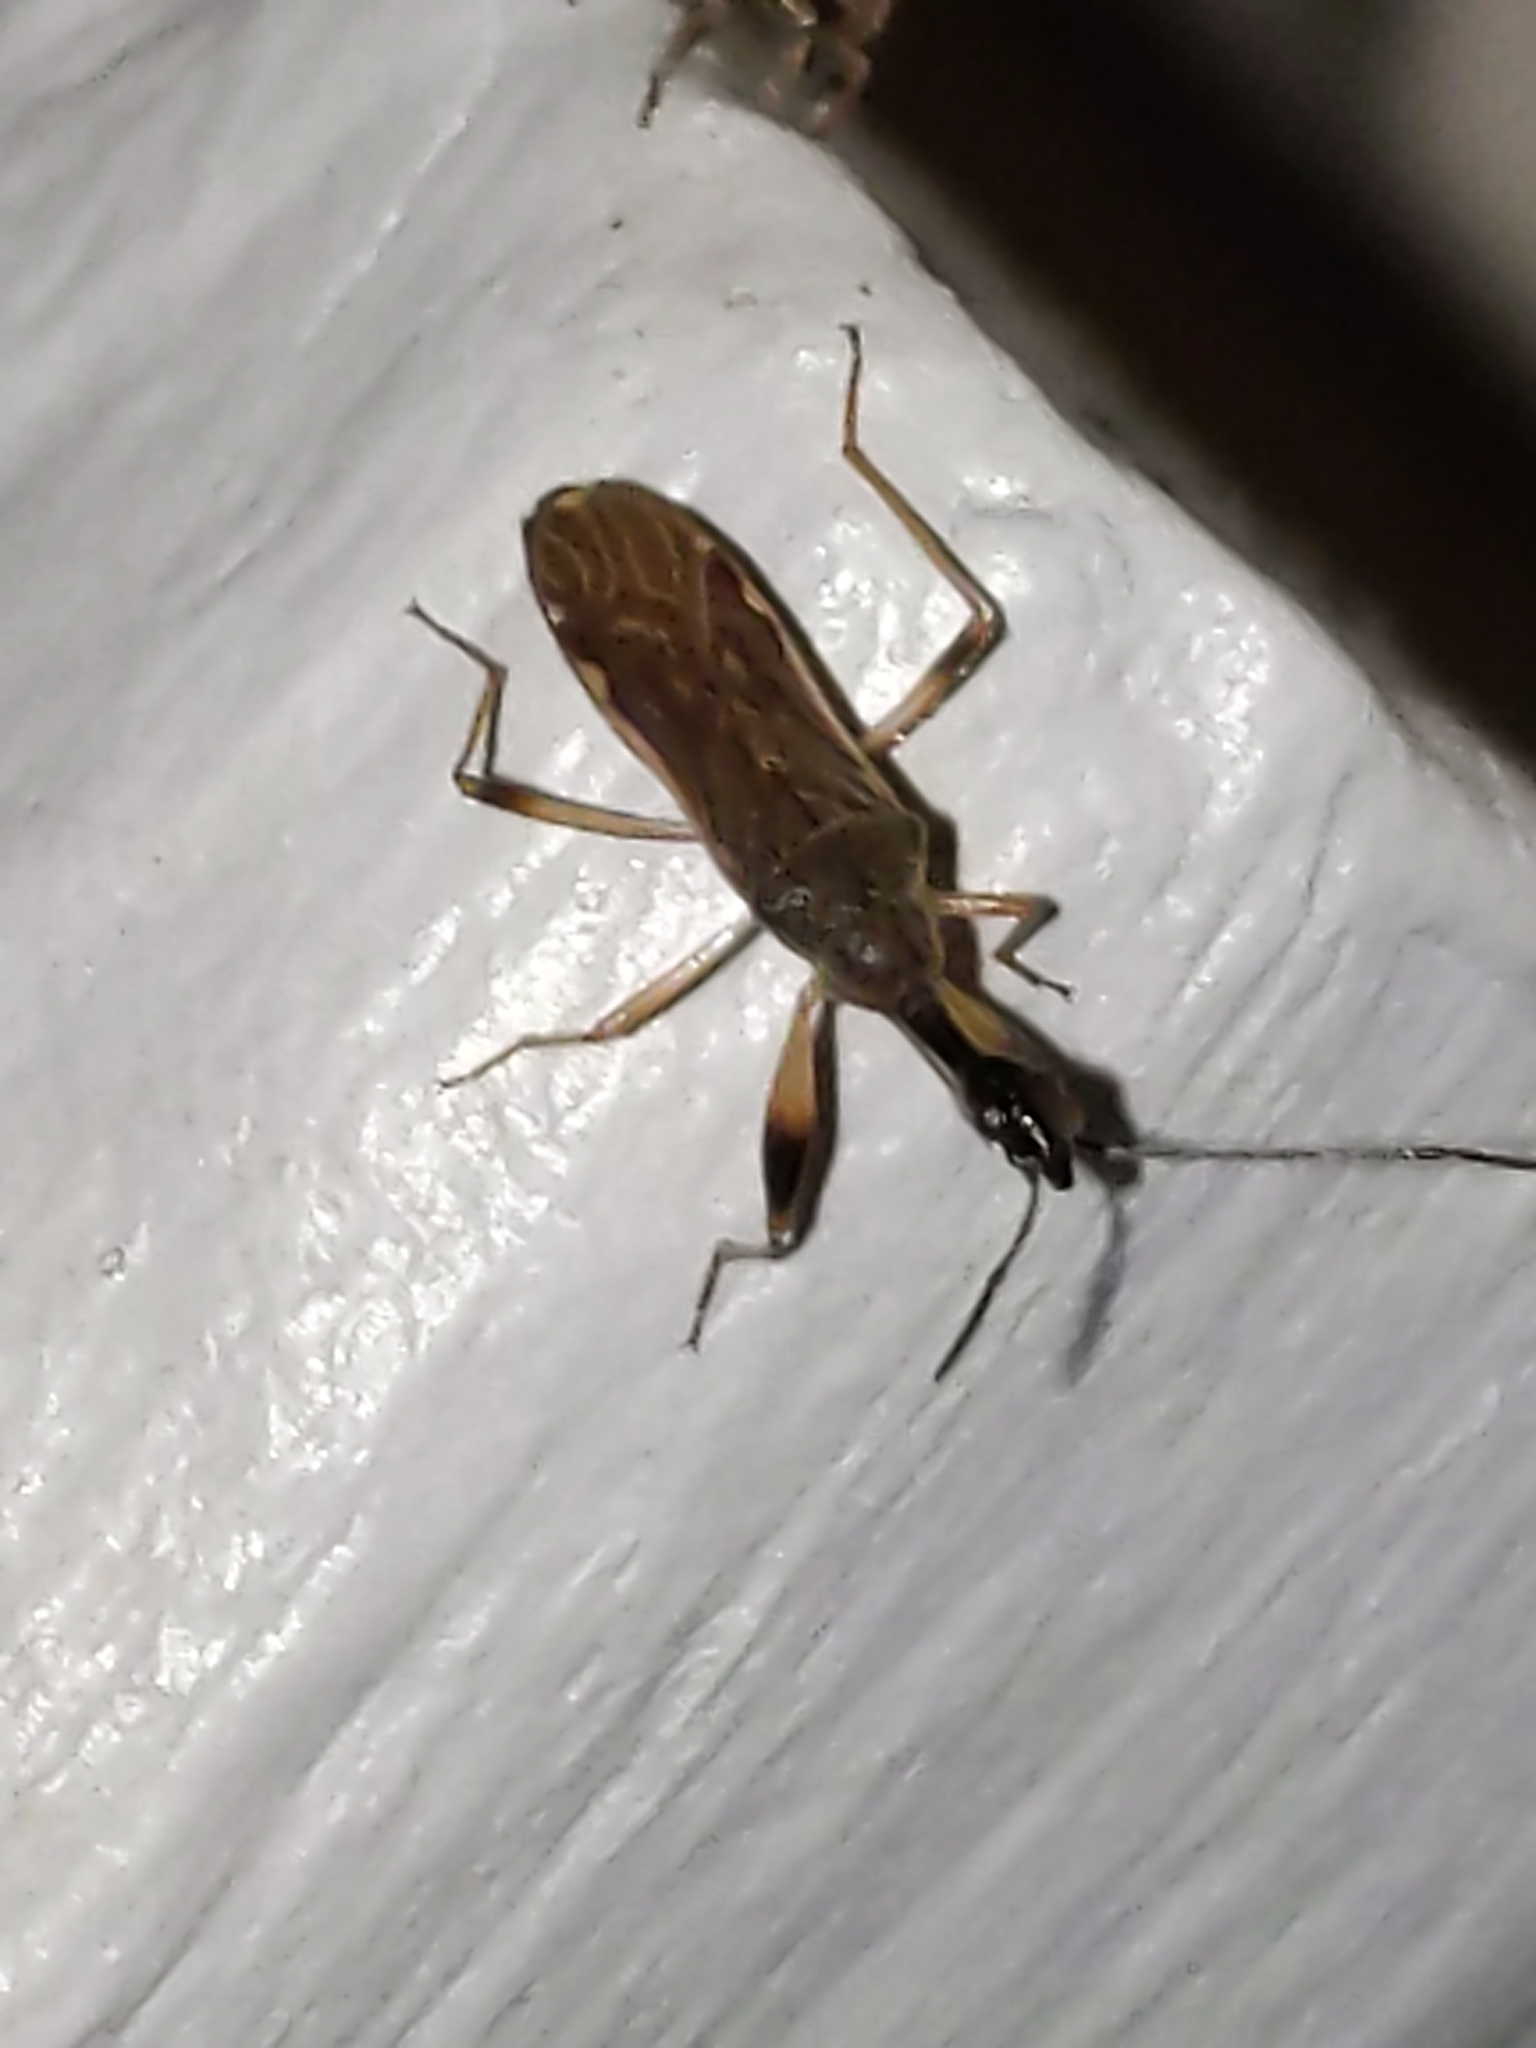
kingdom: Animalia
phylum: Arthropoda
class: Insecta
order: Hemiptera
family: Rhyparochromidae
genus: Myodocha
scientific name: Myodocha serripes
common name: Long-necked seed bug
